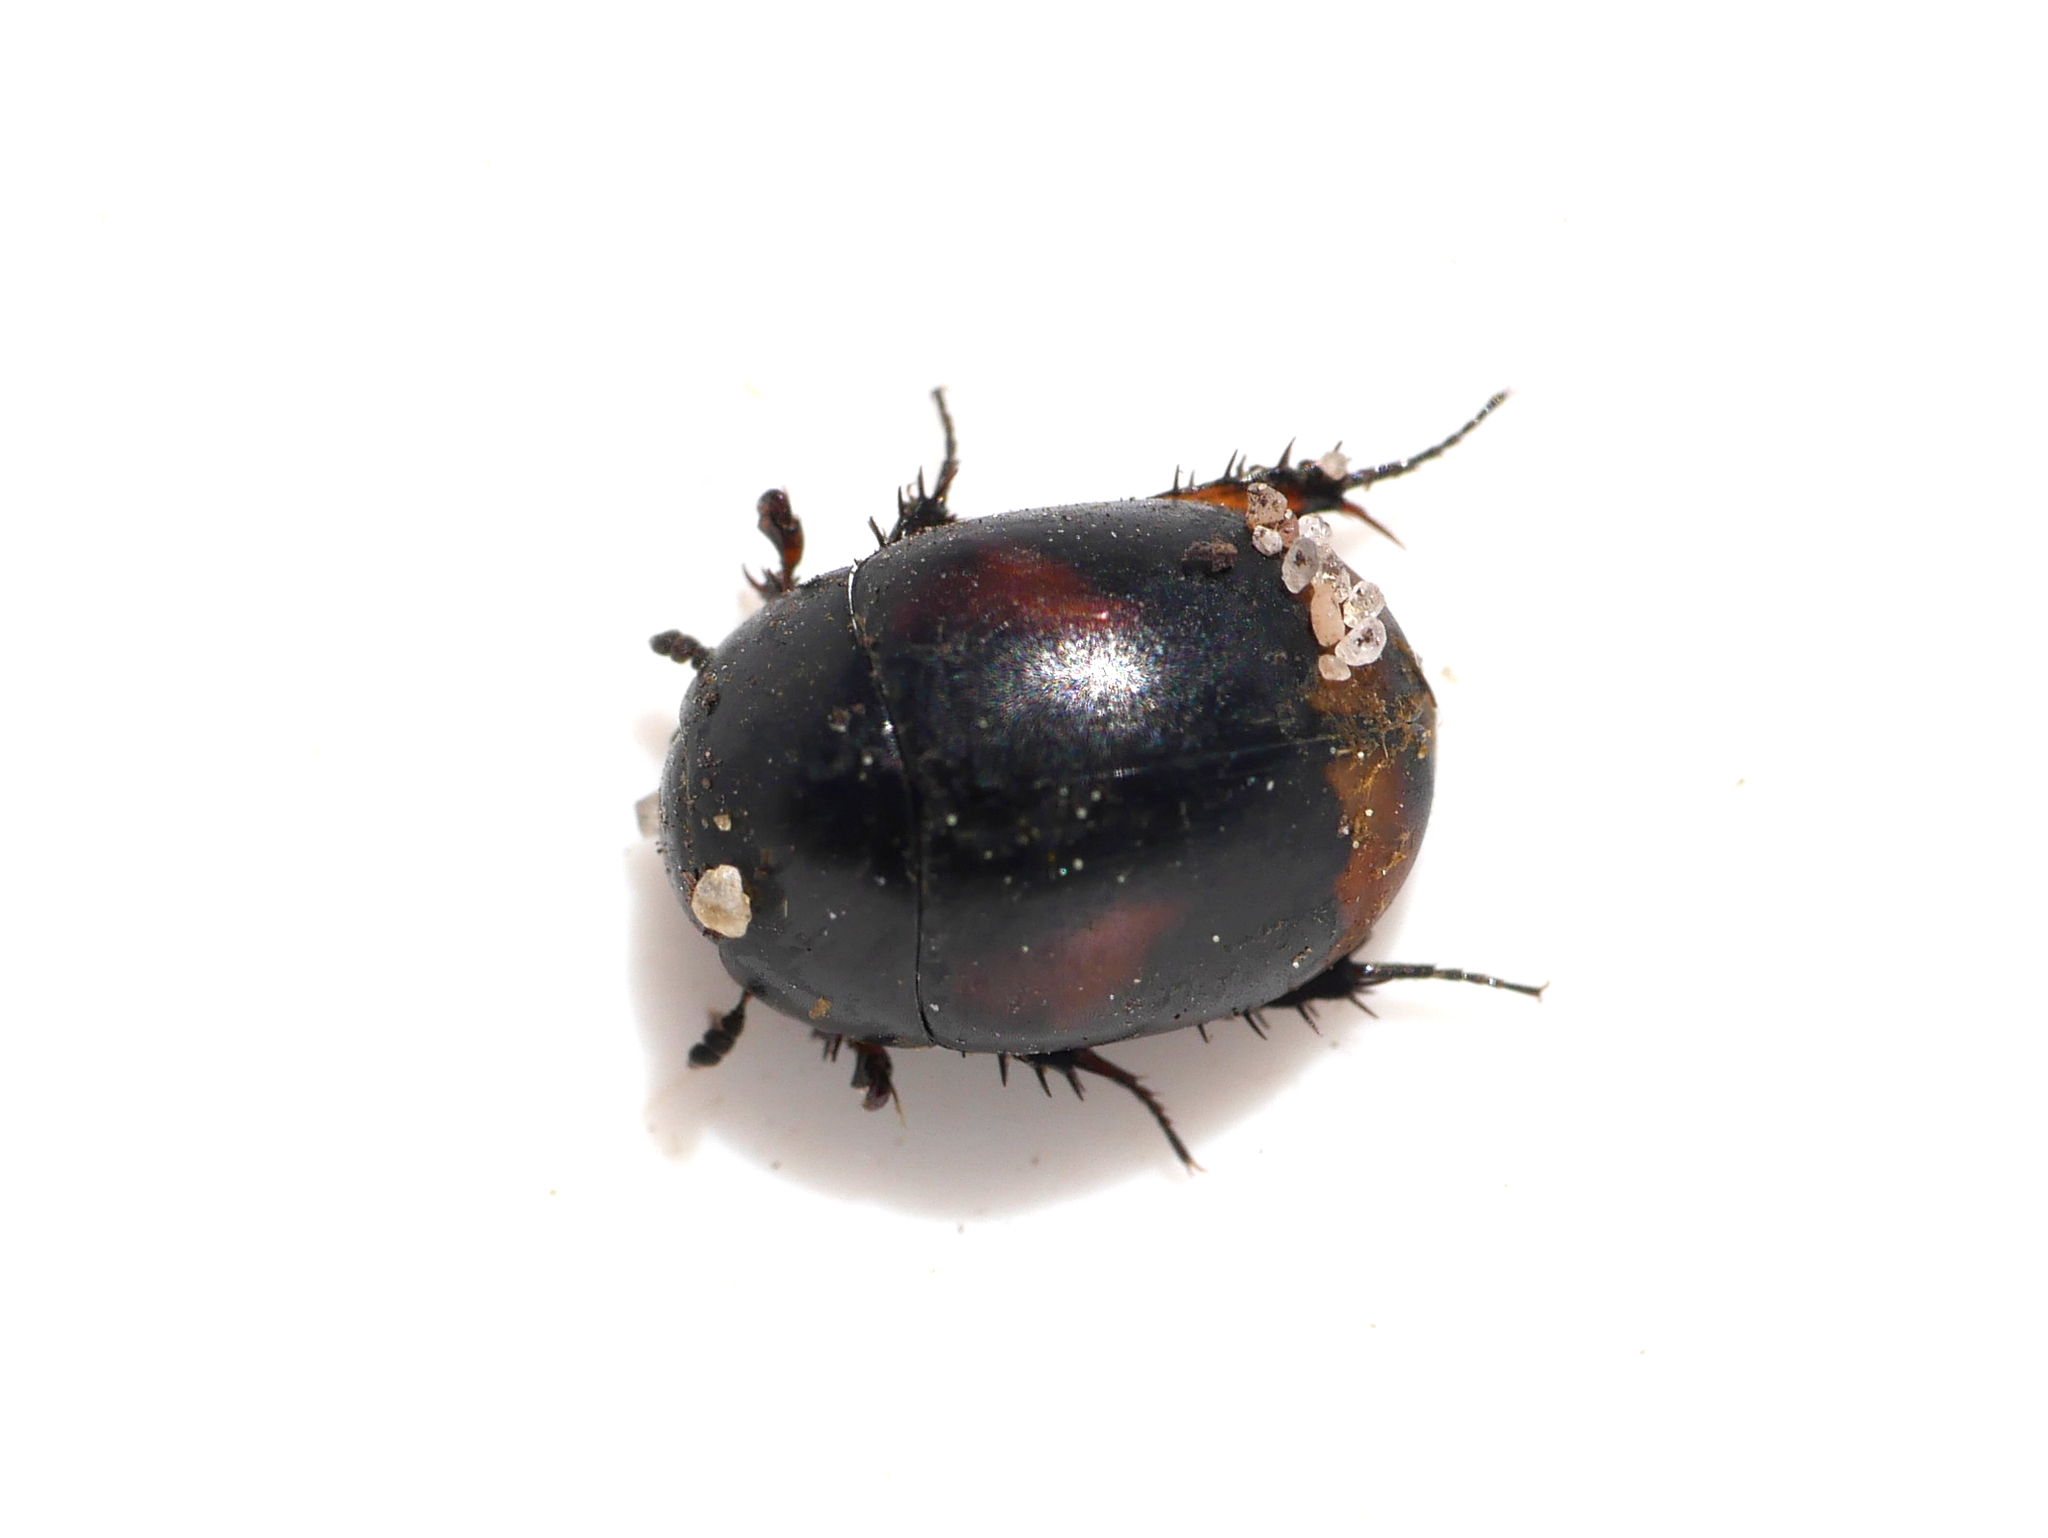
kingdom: Animalia
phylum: Arthropoda
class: Insecta
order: Coleoptera
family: Hydrophilidae
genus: Sphaeridium
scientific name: Sphaeridium lunatum
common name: Water scavenger beetle
